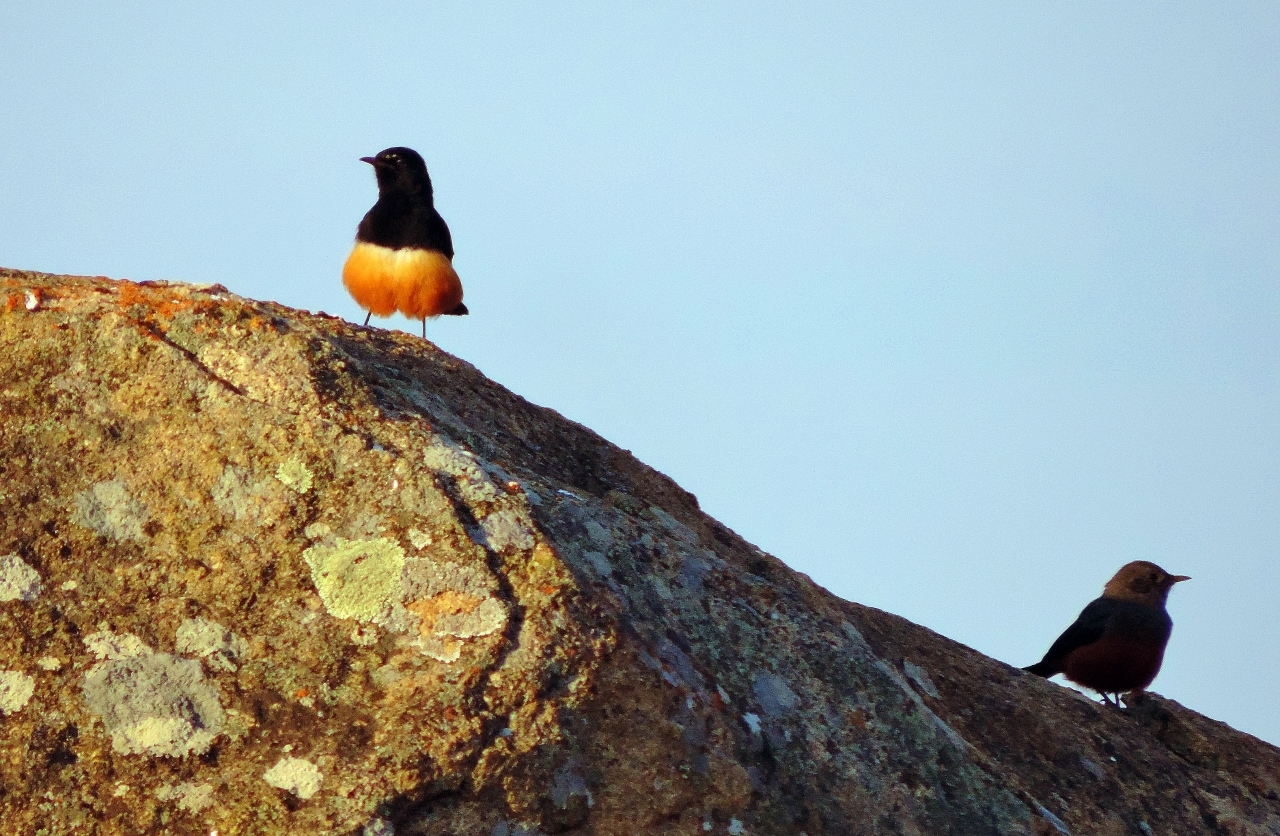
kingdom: Animalia
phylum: Chordata
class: Aves
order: Passeriformes
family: Muscicapidae
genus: Thamnolaea
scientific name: Thamnolaea cinnamomeiventris
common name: Mocking cliff chat
